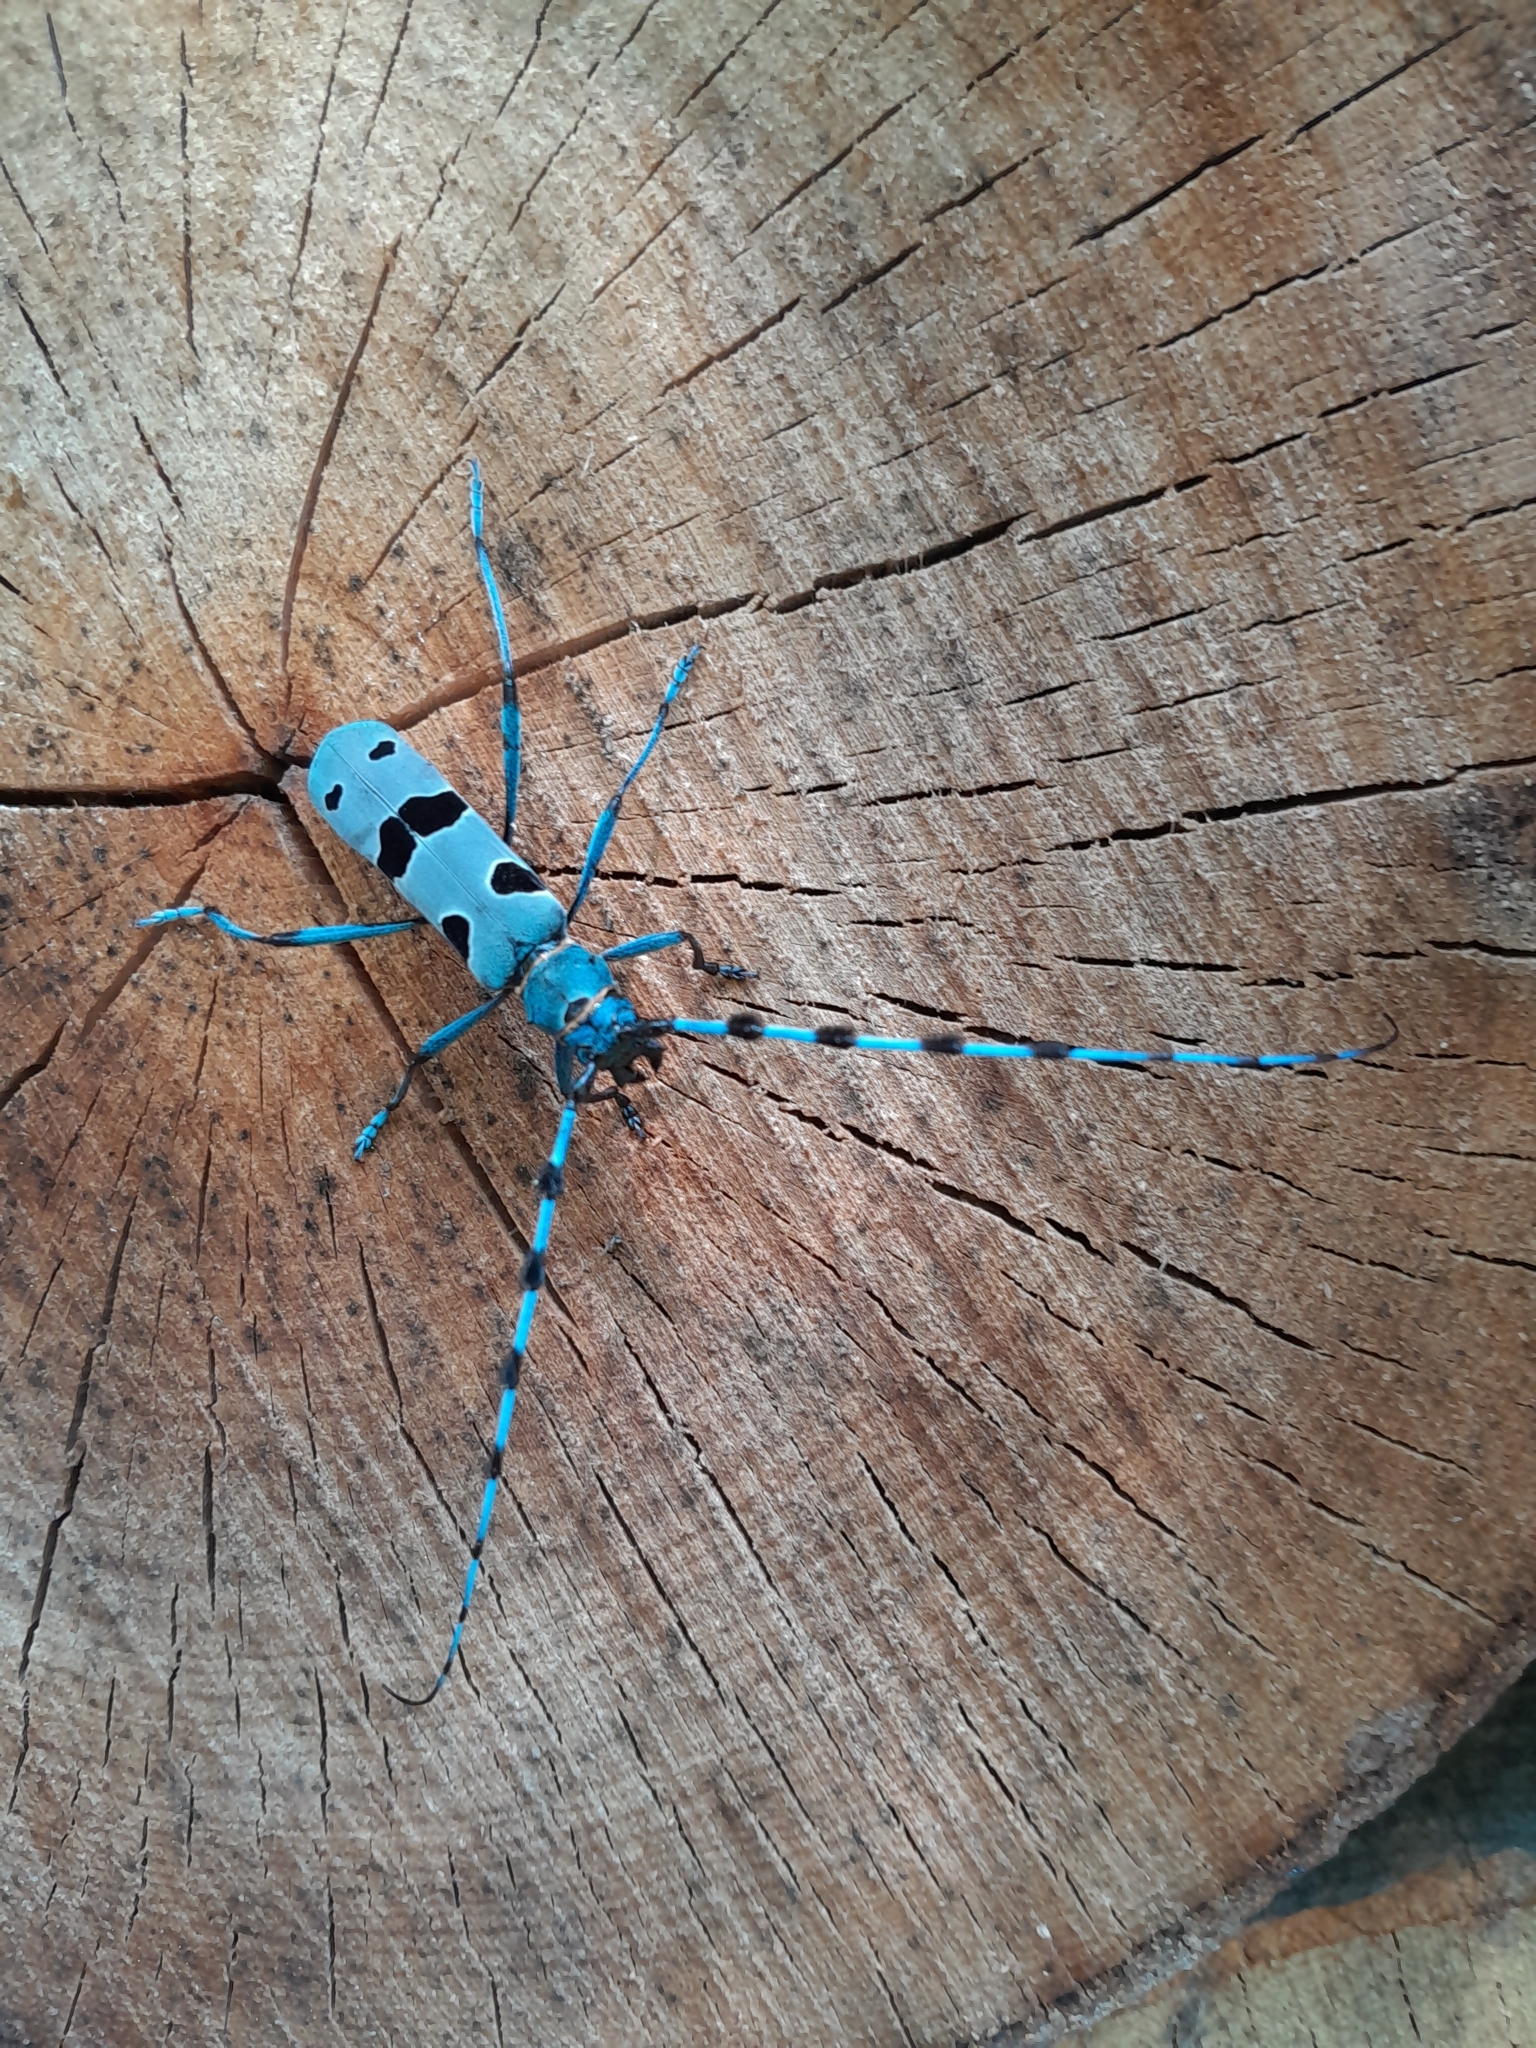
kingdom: Animalia
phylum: Arthropoda
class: Insecta
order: Coleoptera
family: Cerambycidae
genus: Rosalia
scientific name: Rosalia alpina
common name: Rosalia longicorn
